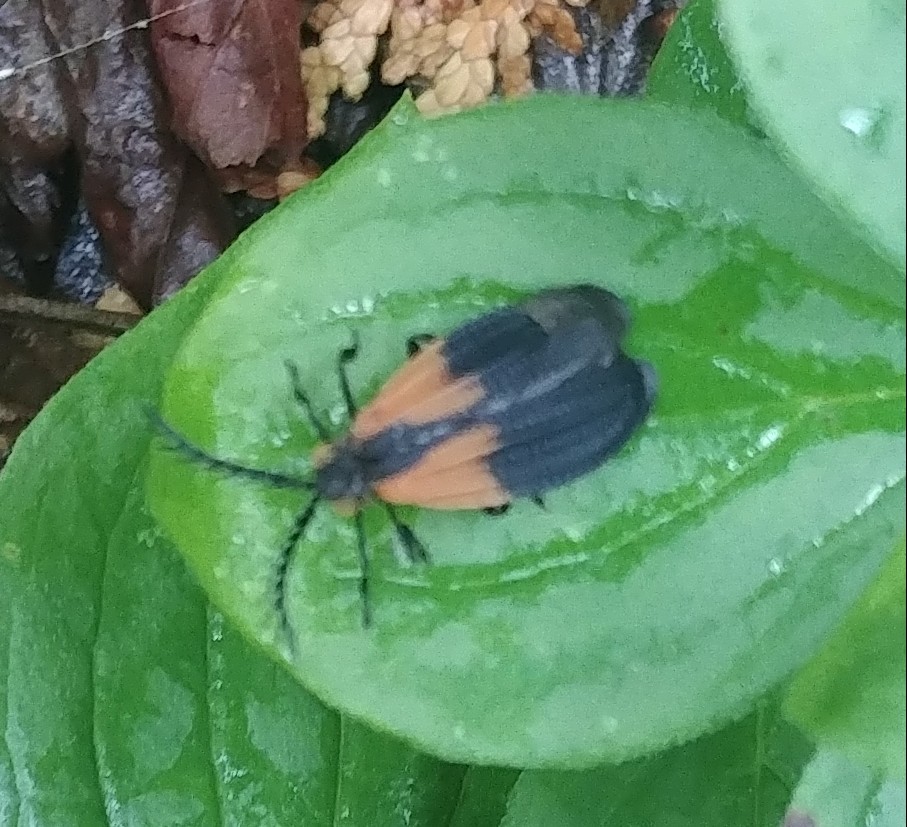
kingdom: Animalia
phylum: Arthropoda
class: Insecta
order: Coleoptera
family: Lycidae
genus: Caenia
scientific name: Caenia dimidiata
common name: Terminal net-winged beetle
